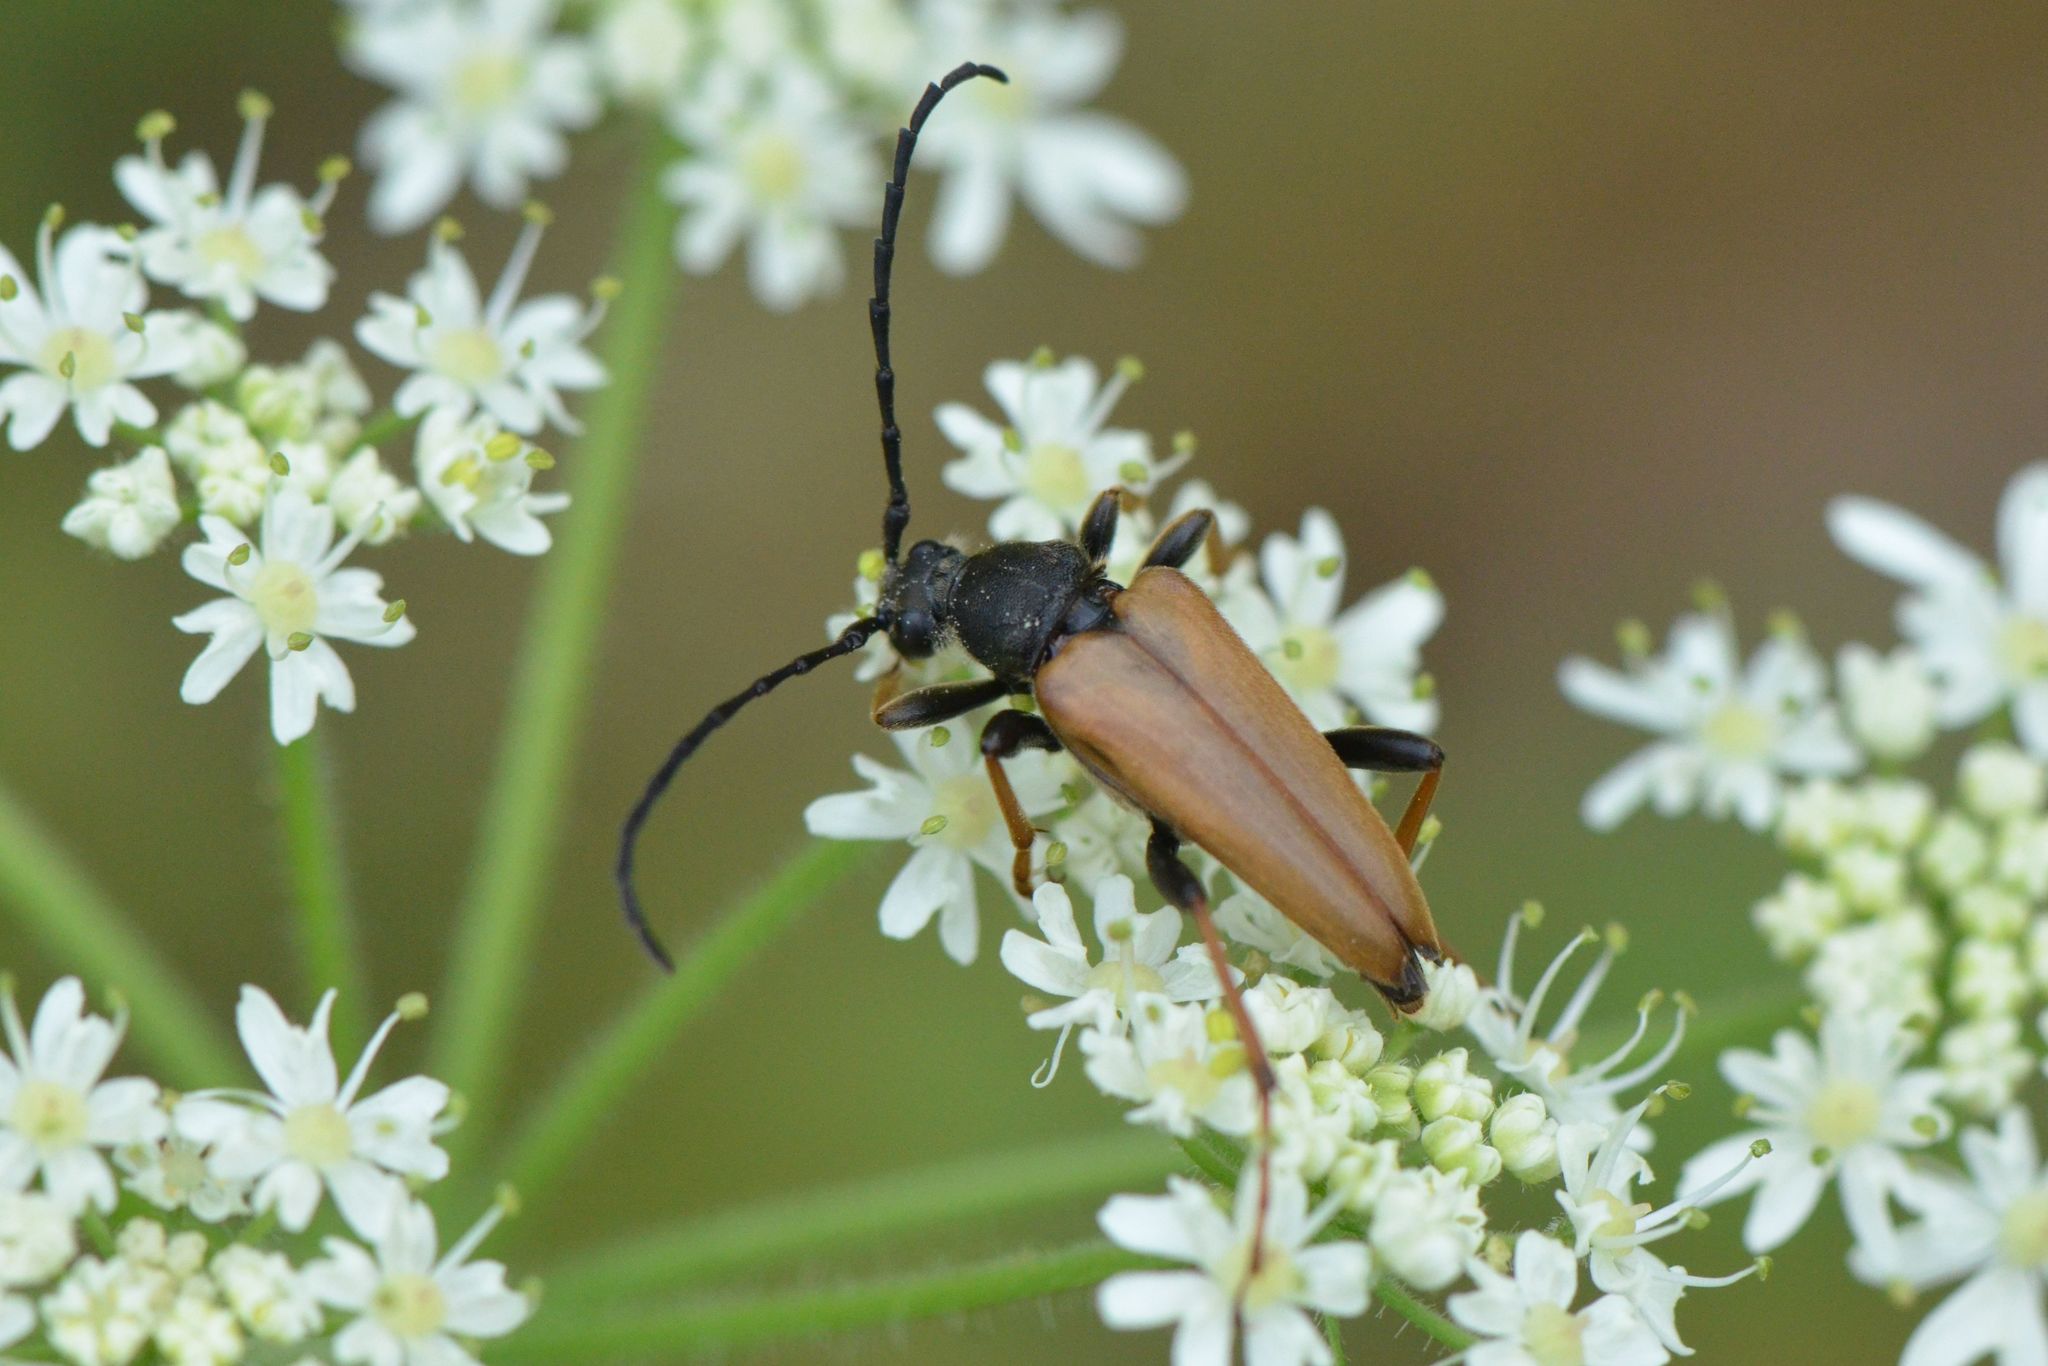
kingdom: Animalia
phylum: Arthropoda
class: Insecta
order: Coleoptera
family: Cerambycidae
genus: Stictoleptura
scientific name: Stictoleptura rubra
